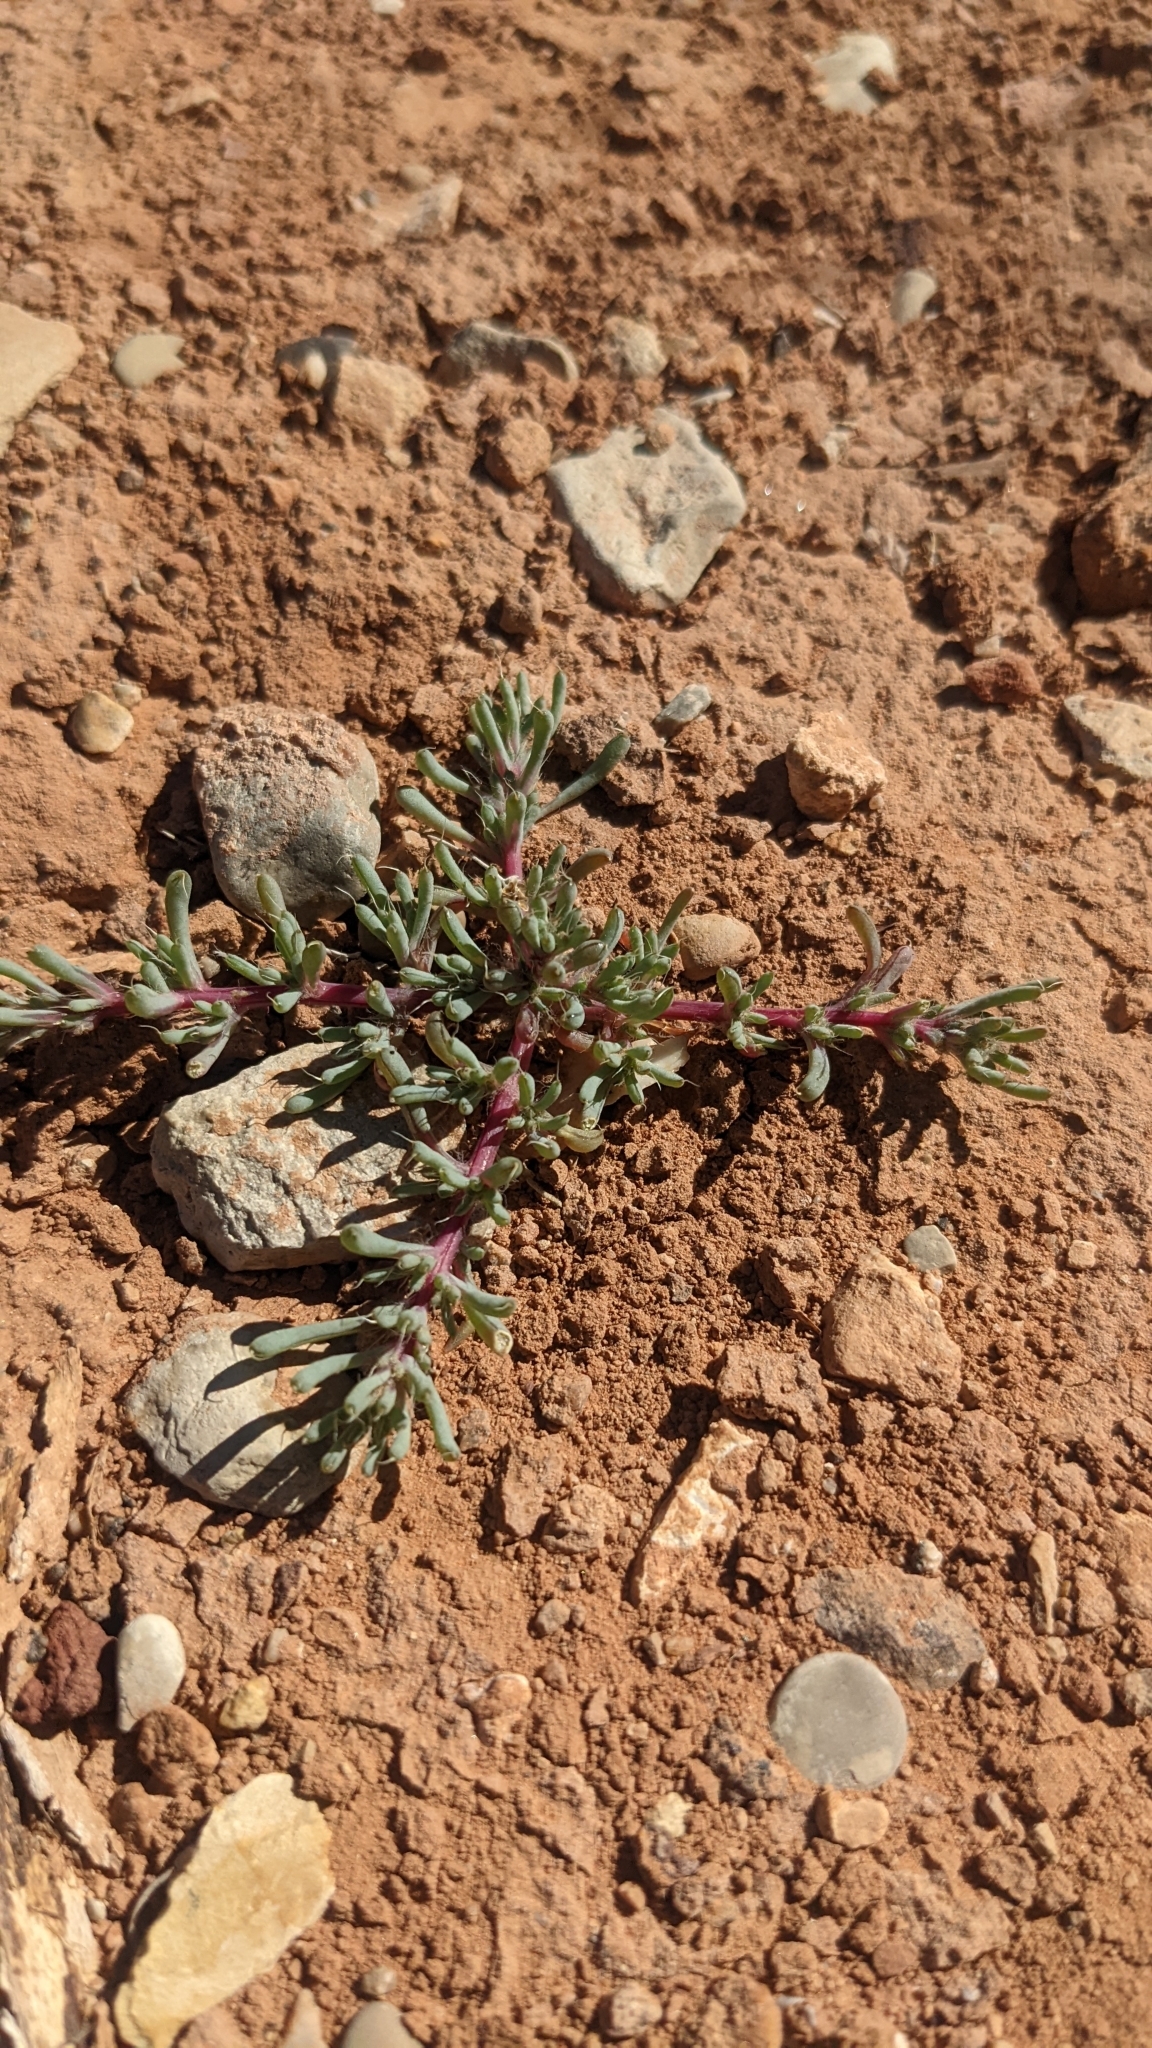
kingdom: Plantae
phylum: Tracheophyta
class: Magnoliopsida
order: Caryophyllales
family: Amaranthaceae
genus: Halogeton
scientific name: Halogeton glomeratus
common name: Saltlover
